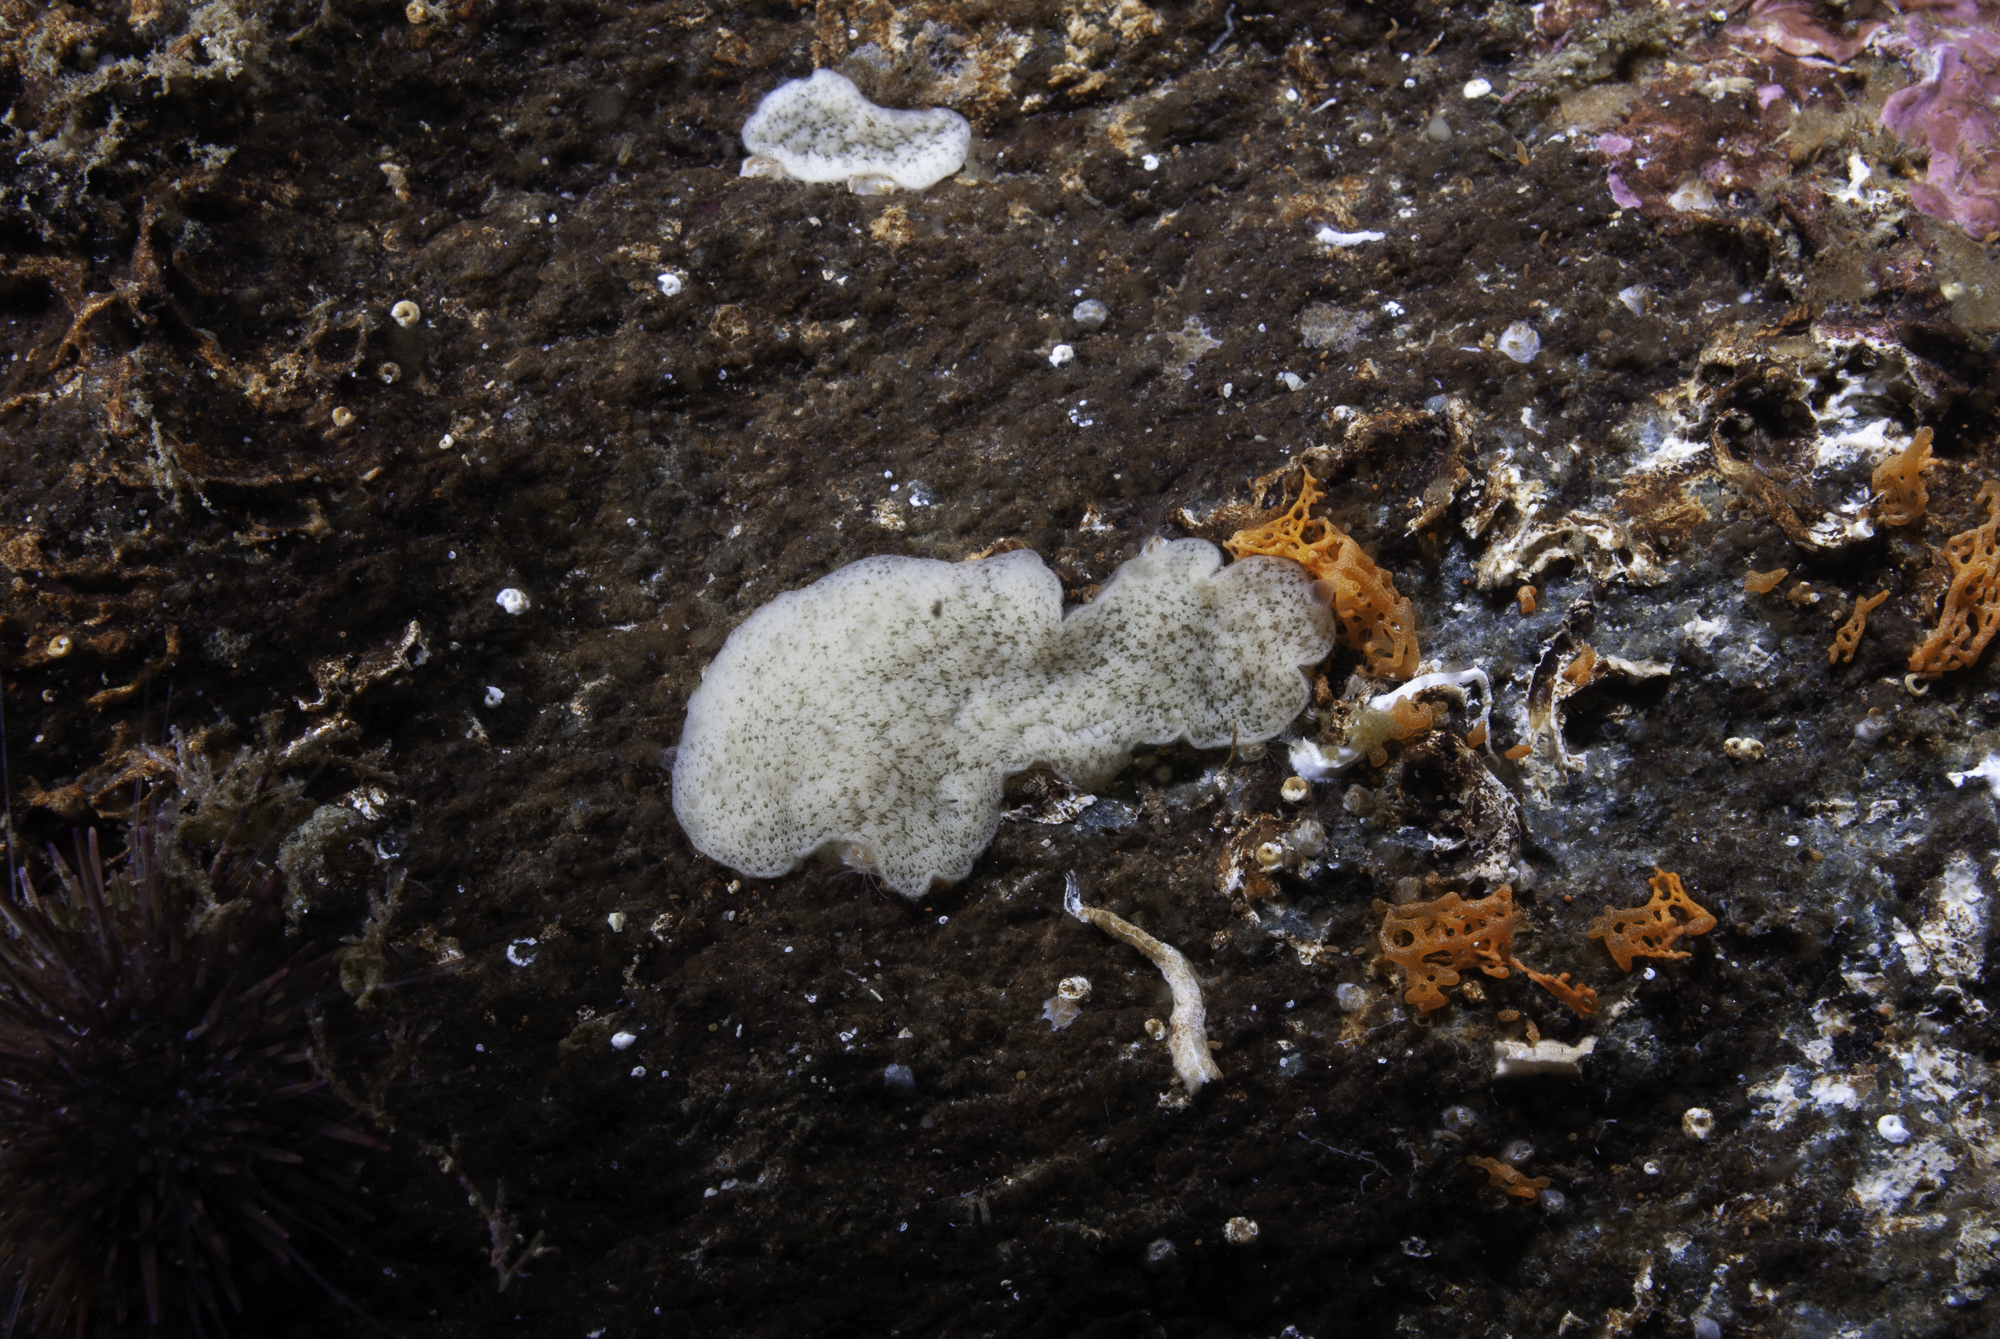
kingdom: Animalia
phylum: Porifera
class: Homoscleromorpha
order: Homosclerophorida
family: Plakinidae
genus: Plakina
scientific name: Plakina monolopha
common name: Simple-rayed membrane sponge
